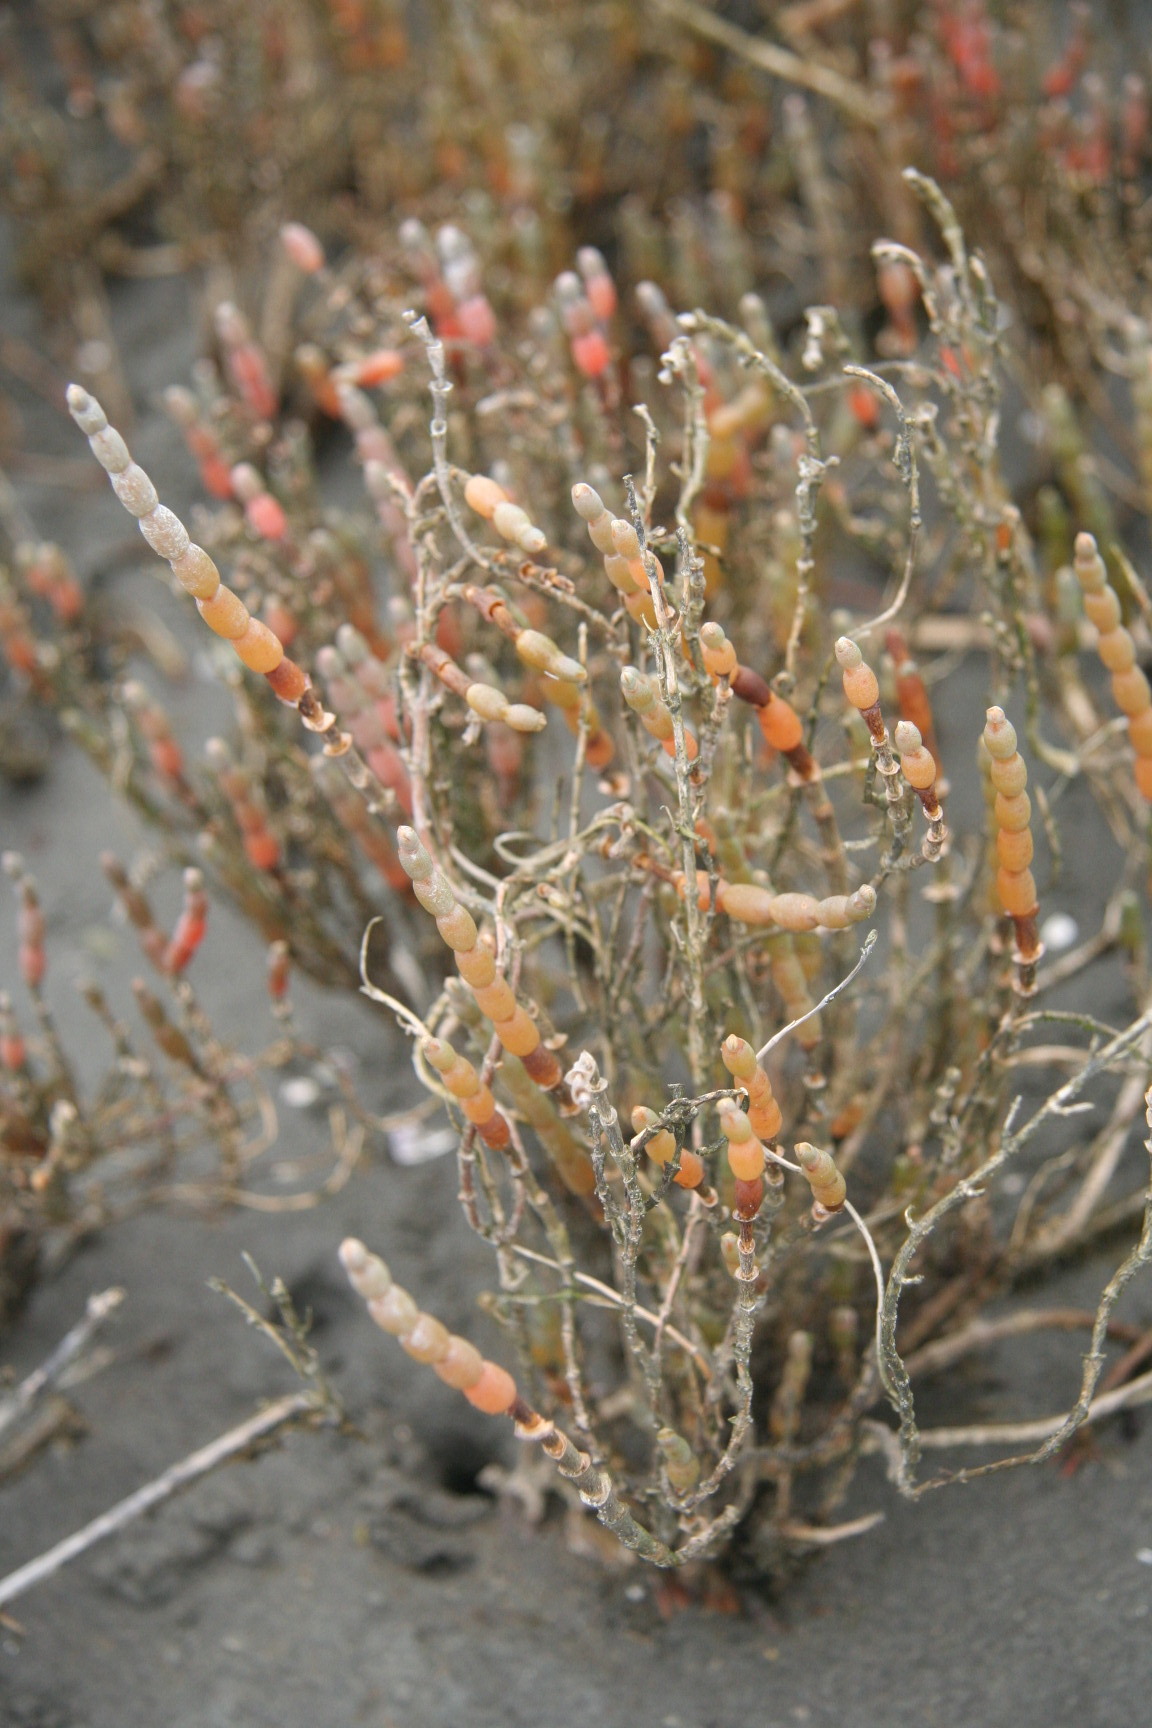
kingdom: Plantae
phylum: Tracheophyta
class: Magnoliopsida
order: Caryophyllales
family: Amaranthaceae
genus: Salicornia
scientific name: Salicornia quinqueflora
